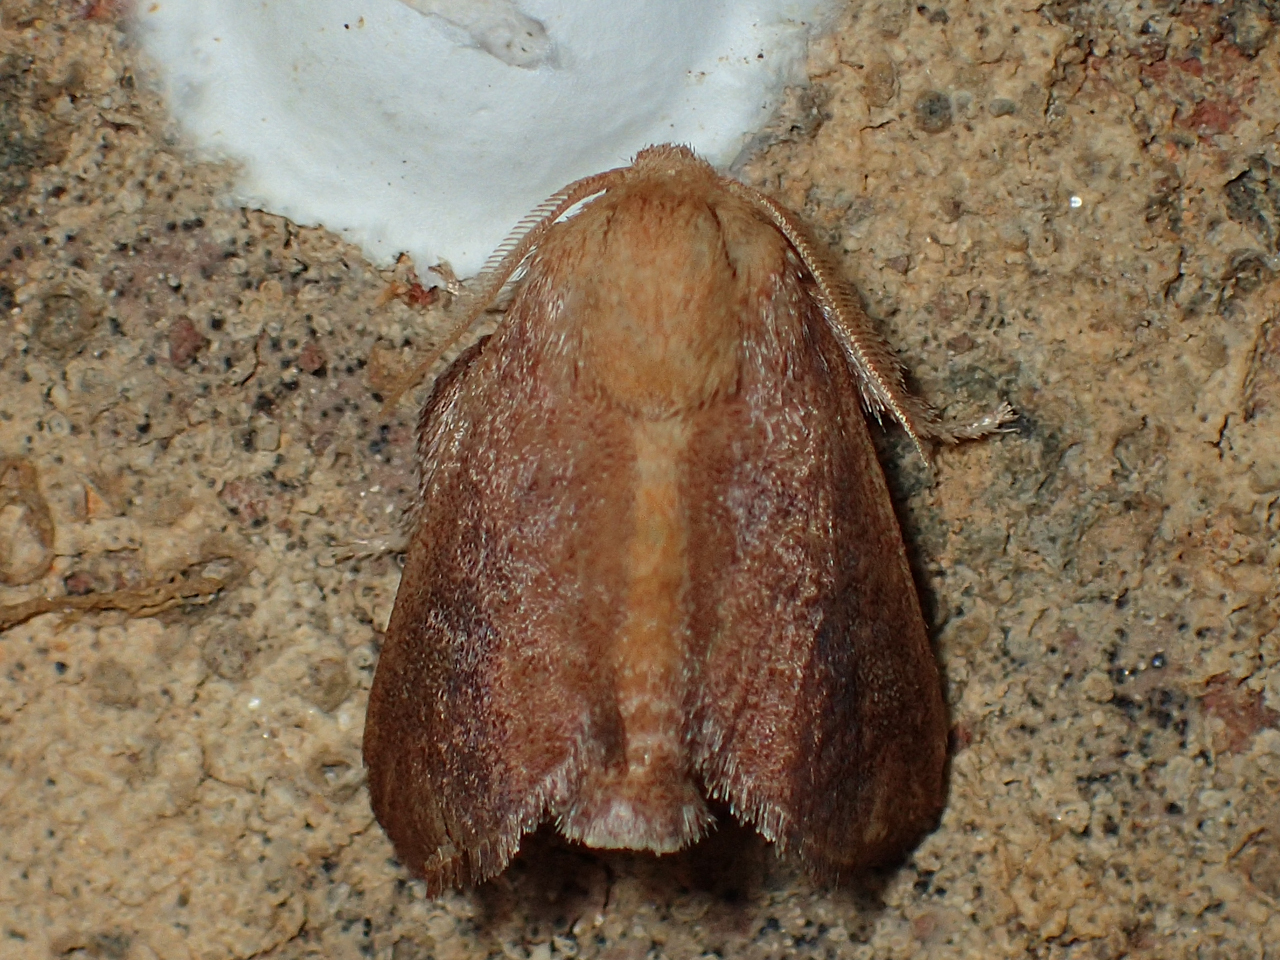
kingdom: Animalia
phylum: Arthropoda
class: Insecta
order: Lepidoptera
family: Limacodidae
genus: Isa
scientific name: Isa textula
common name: Crowned slug moth
